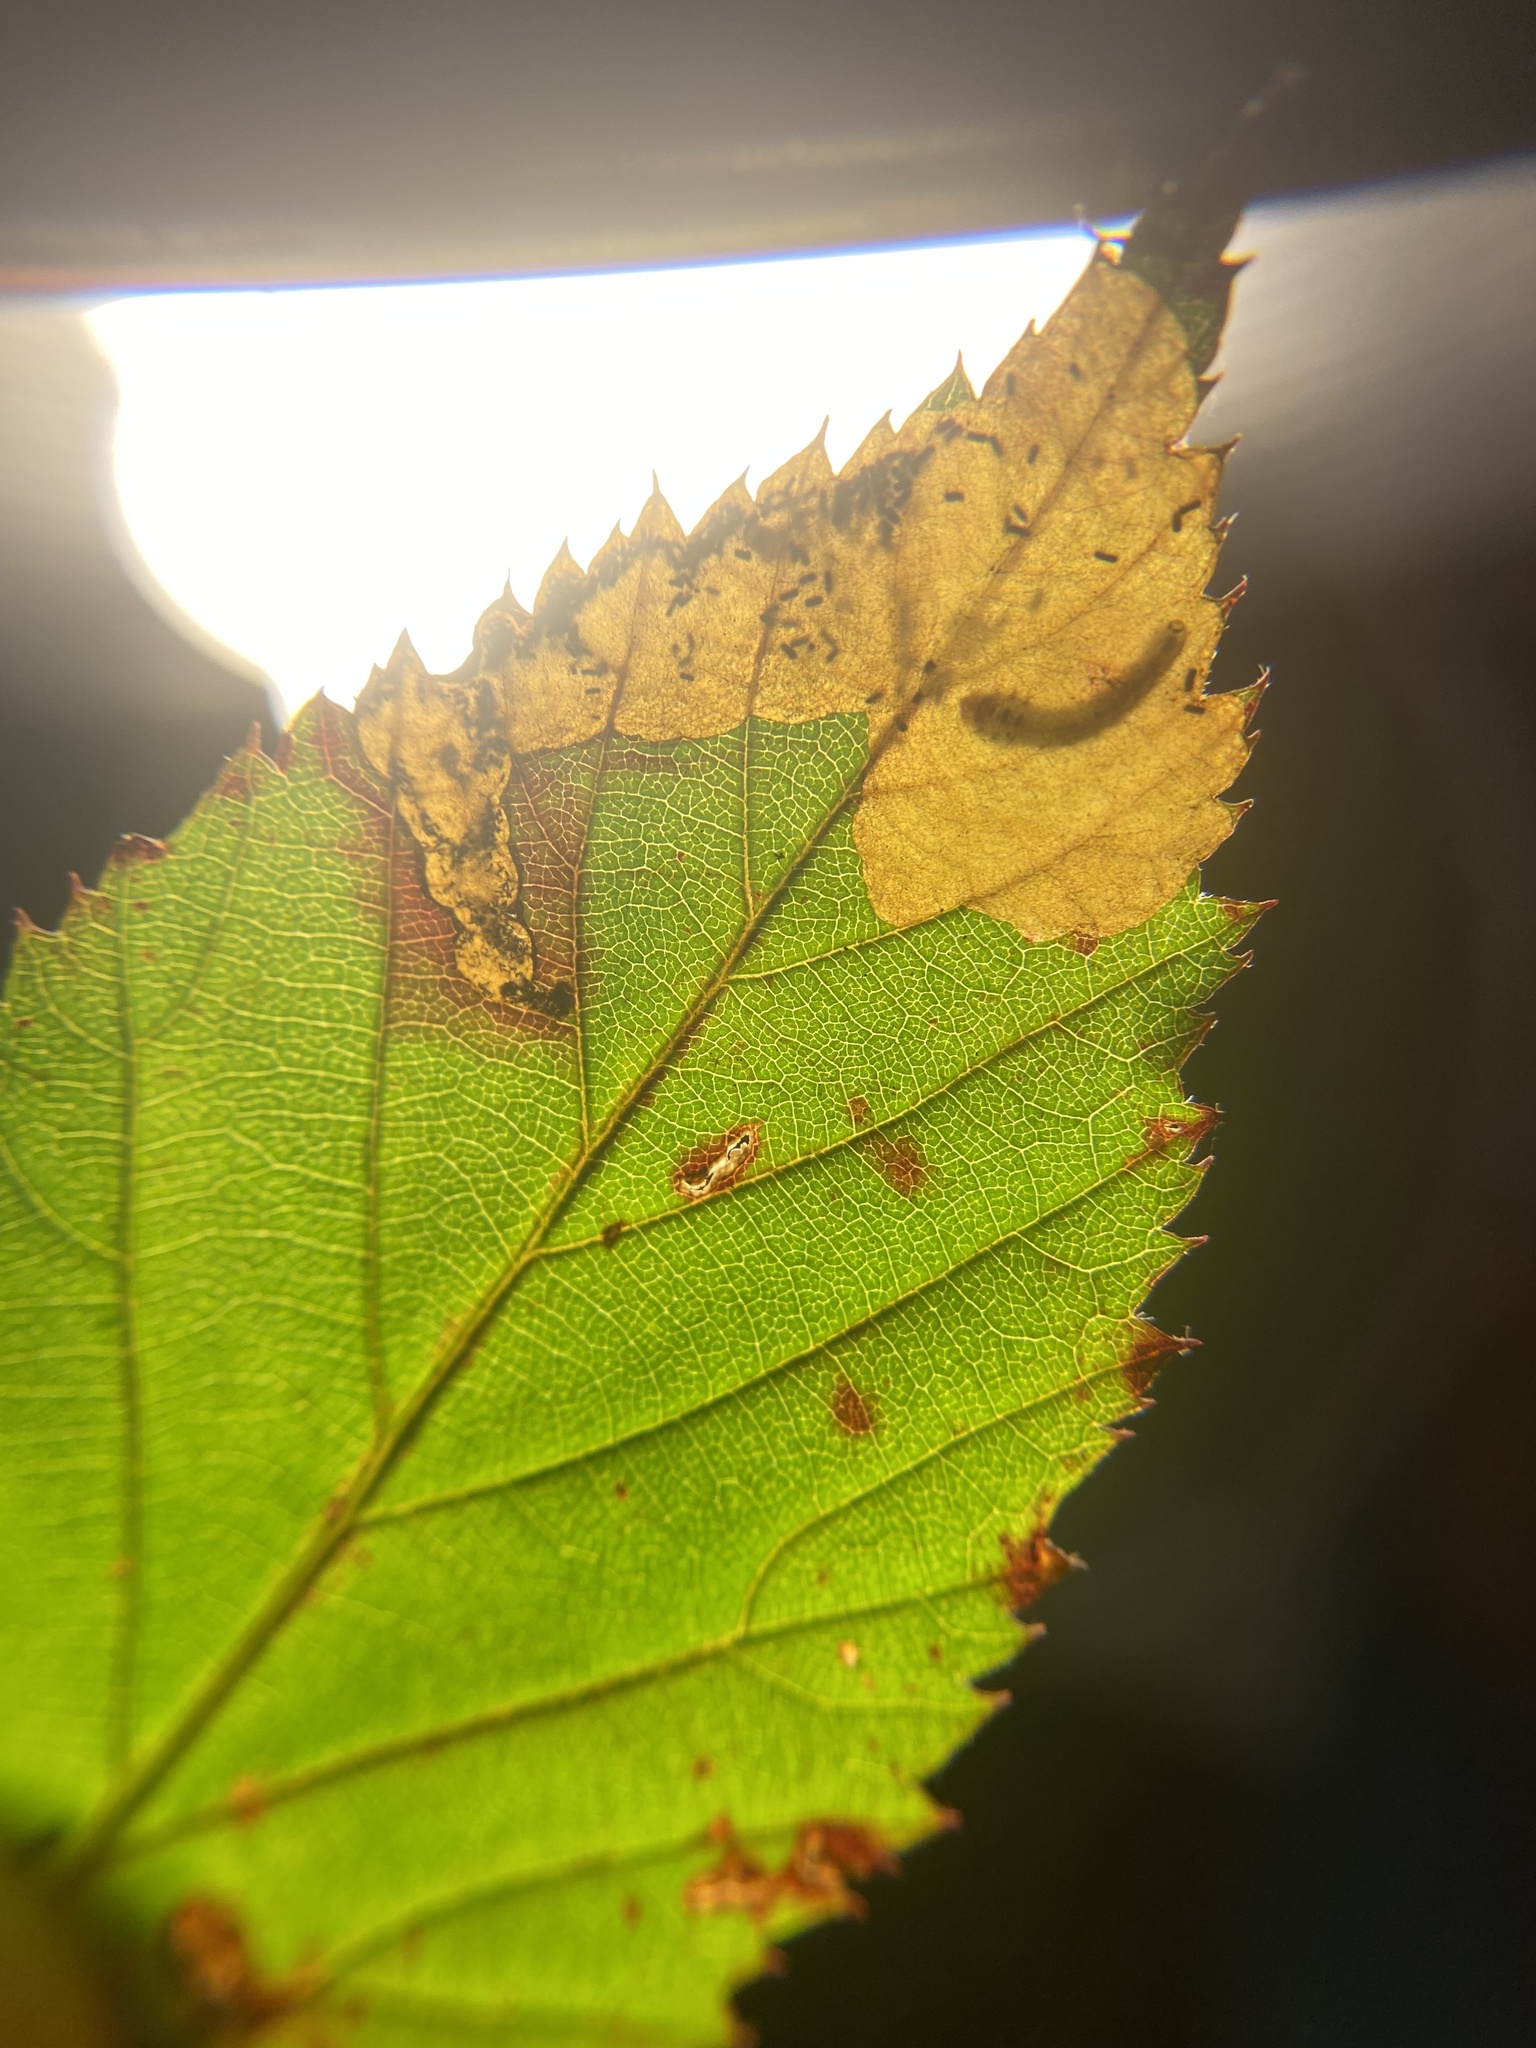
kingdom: Animalia
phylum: Arthropoda
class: Insecta
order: Hymenoptera
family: Tenthredinidae
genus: Metallus
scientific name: Metallus rohweri
